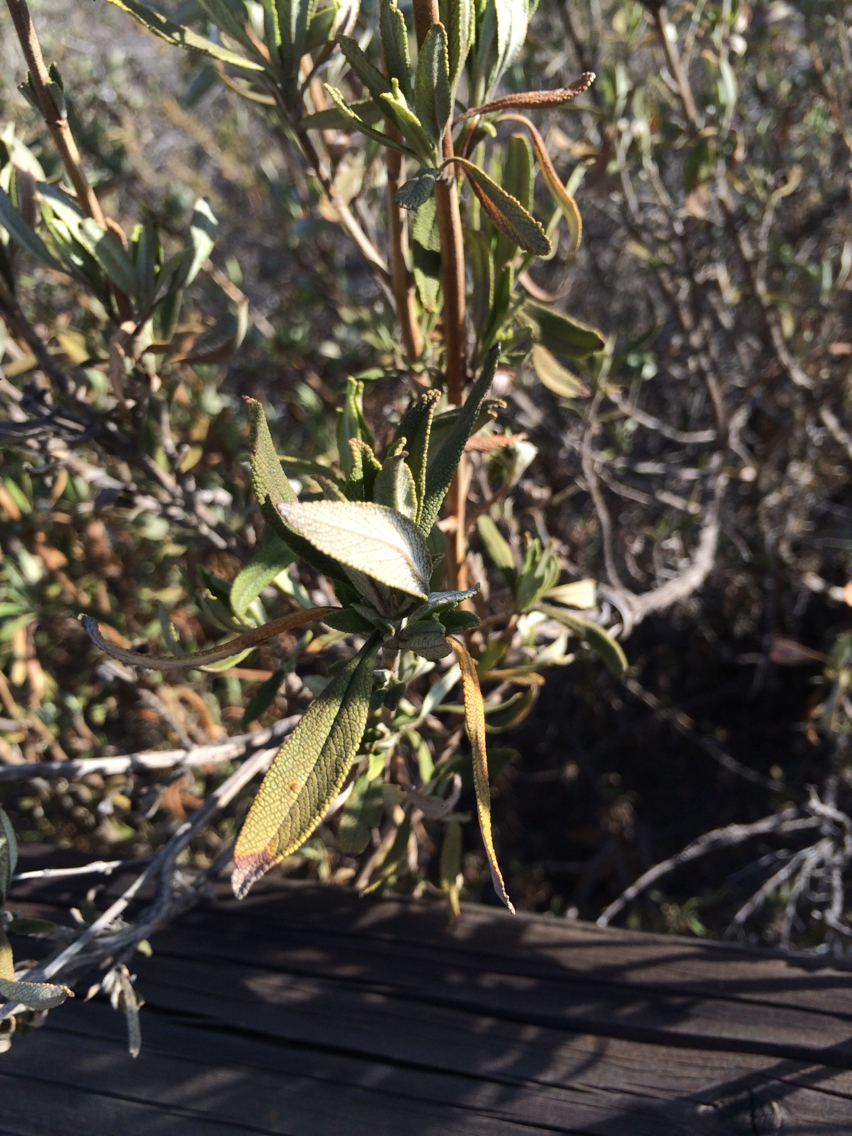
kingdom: Plantae
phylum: Tracheophyta
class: Magnoliopsida
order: Lamiales
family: Lamiaceae
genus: Salvia
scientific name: Salvia mellifera
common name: Black sage
